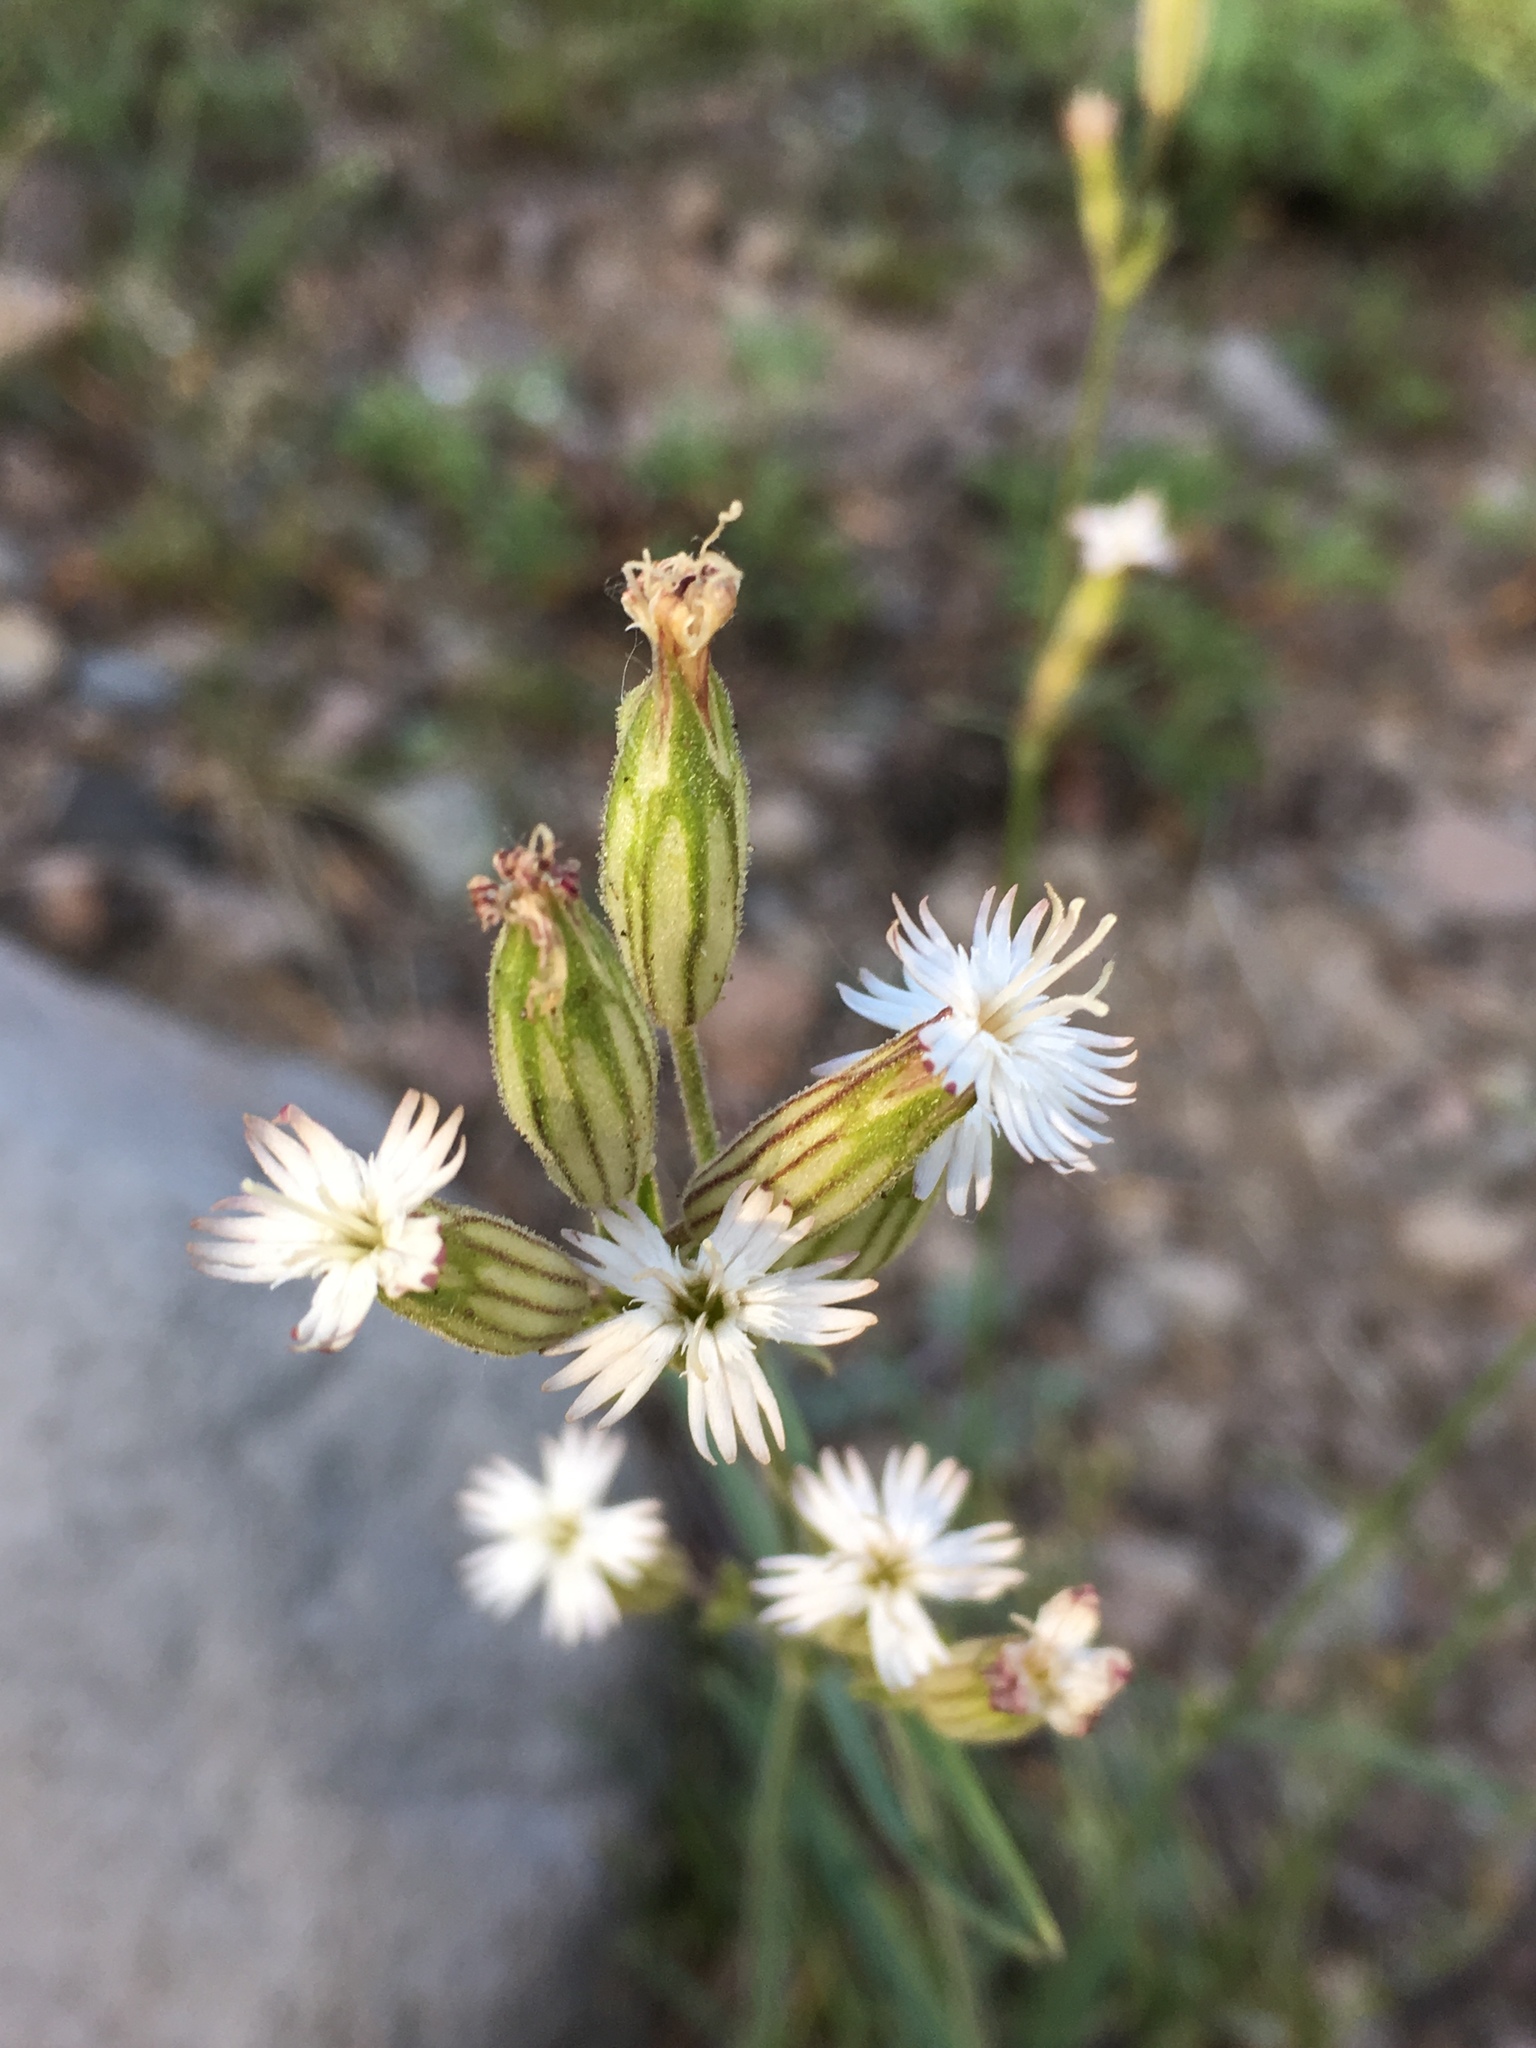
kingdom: Plantae
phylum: Tracheophyta
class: Magnoliopsida
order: Caryophyllales
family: Caryophyllaceae
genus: Silene
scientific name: Silene bernardina
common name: Palmer's catchfly
